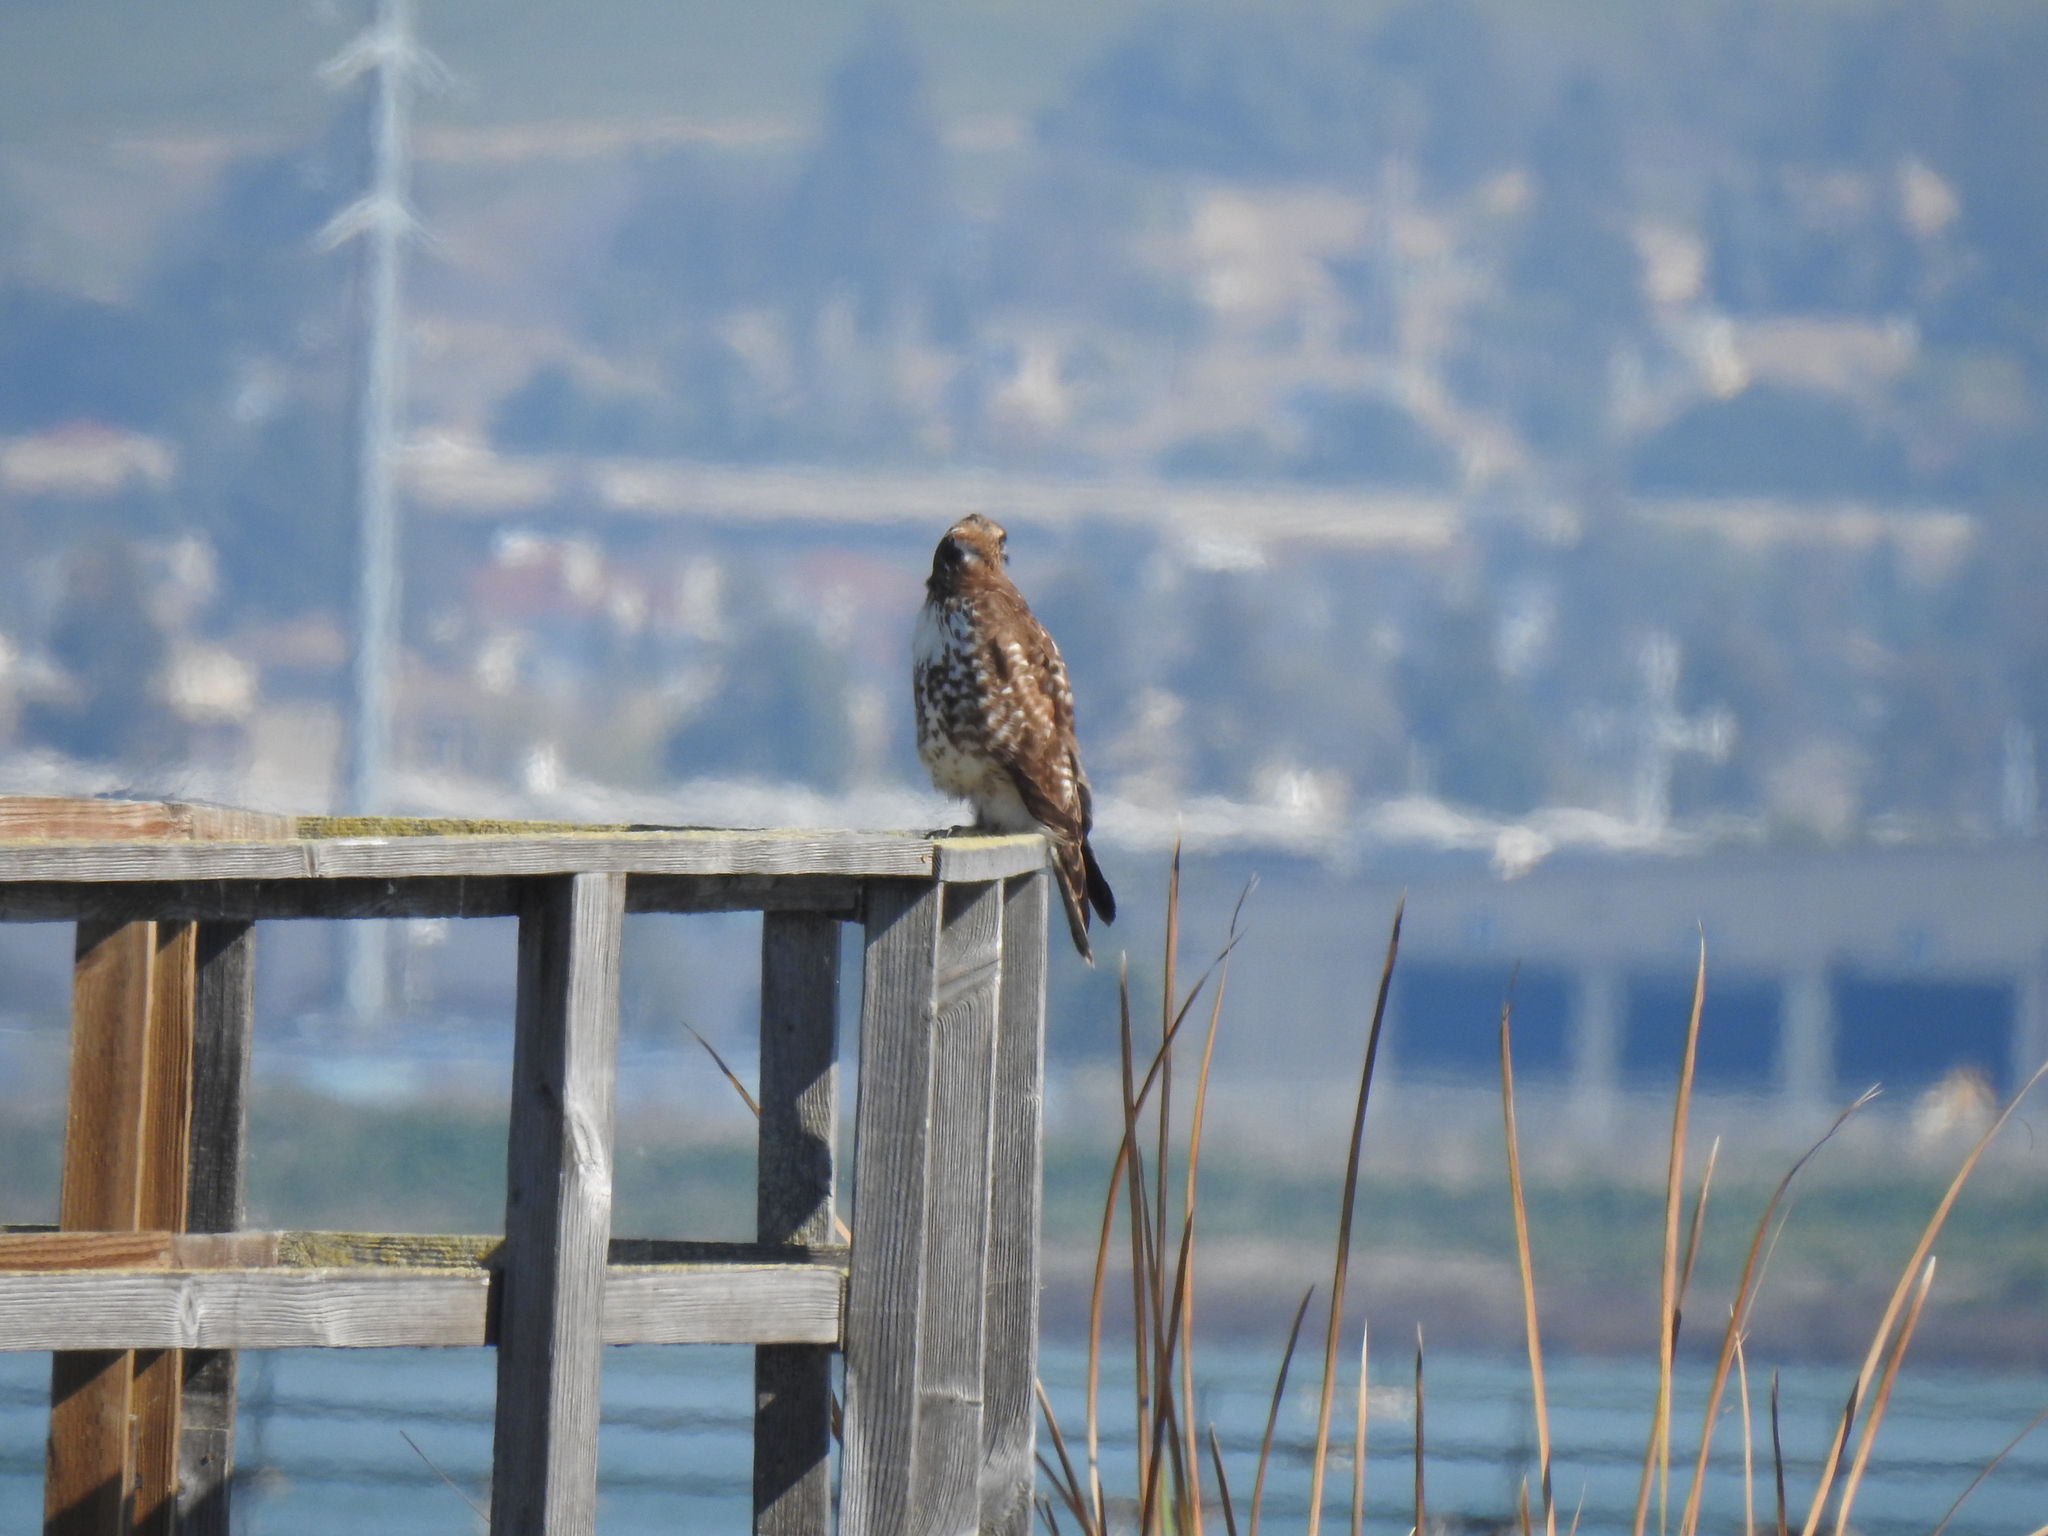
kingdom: Animalia
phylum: Chordata
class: Aves
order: Accipitriformes
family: Accipitridae
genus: Buteo
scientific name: Buteo jamaicensis
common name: Red-tailed hawk
